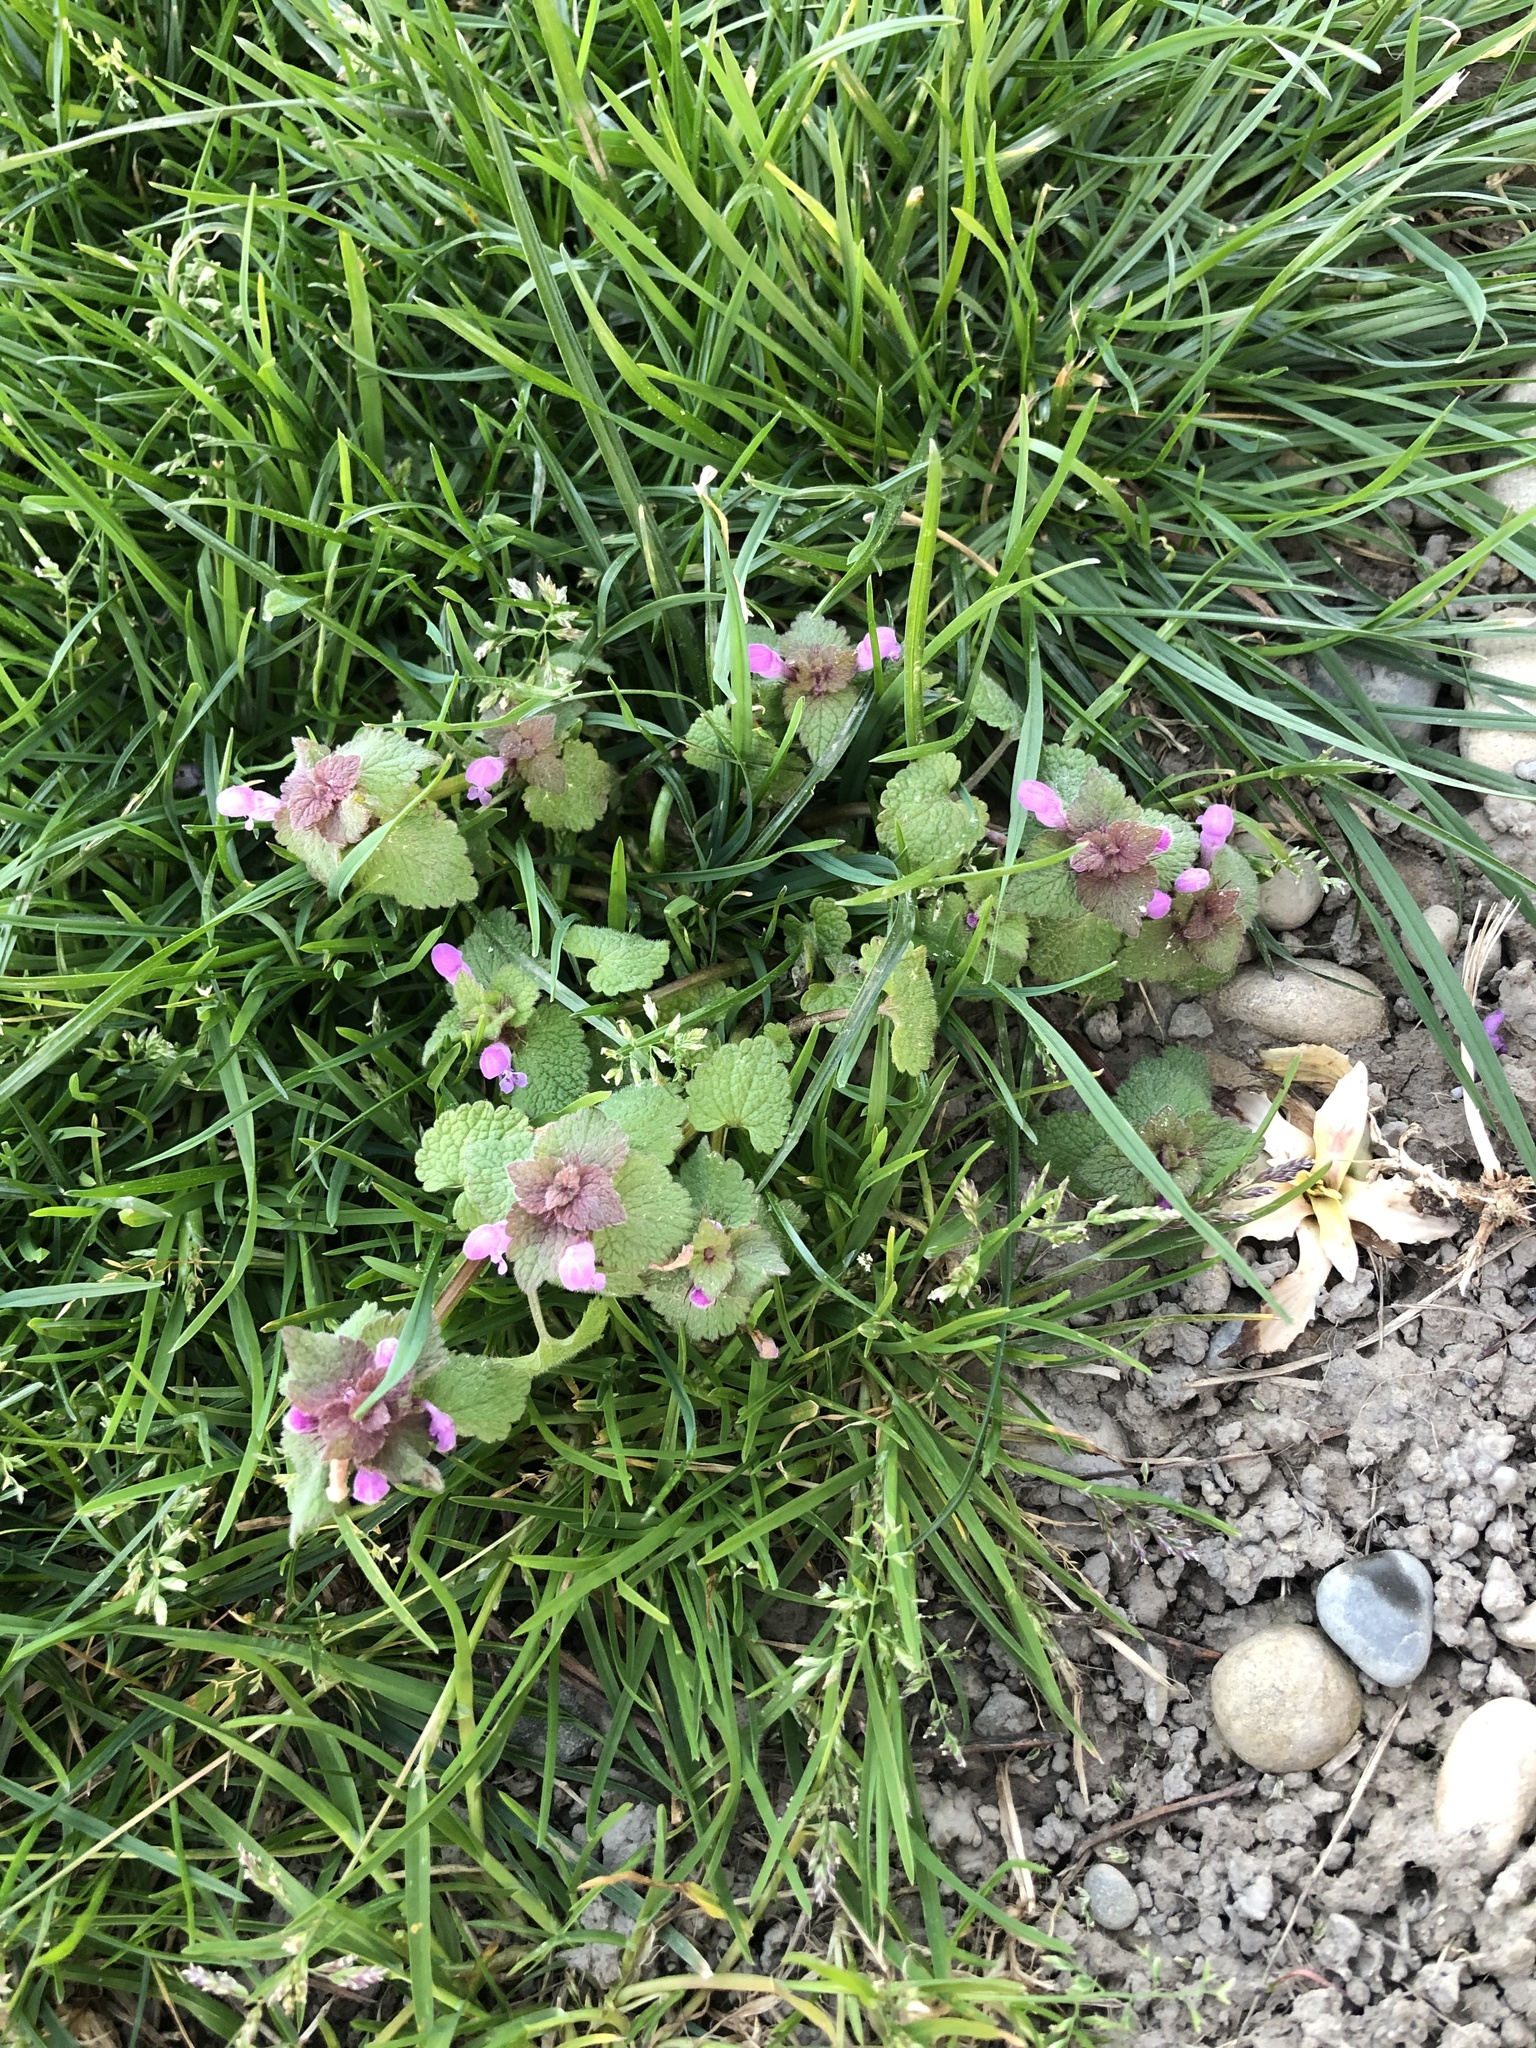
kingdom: Plantae
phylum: Tracheophyta
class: Magnoliopsida
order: Lamiales
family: Lamiaceae
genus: Lamium
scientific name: Lamium purpureum
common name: Red dead-nettle
